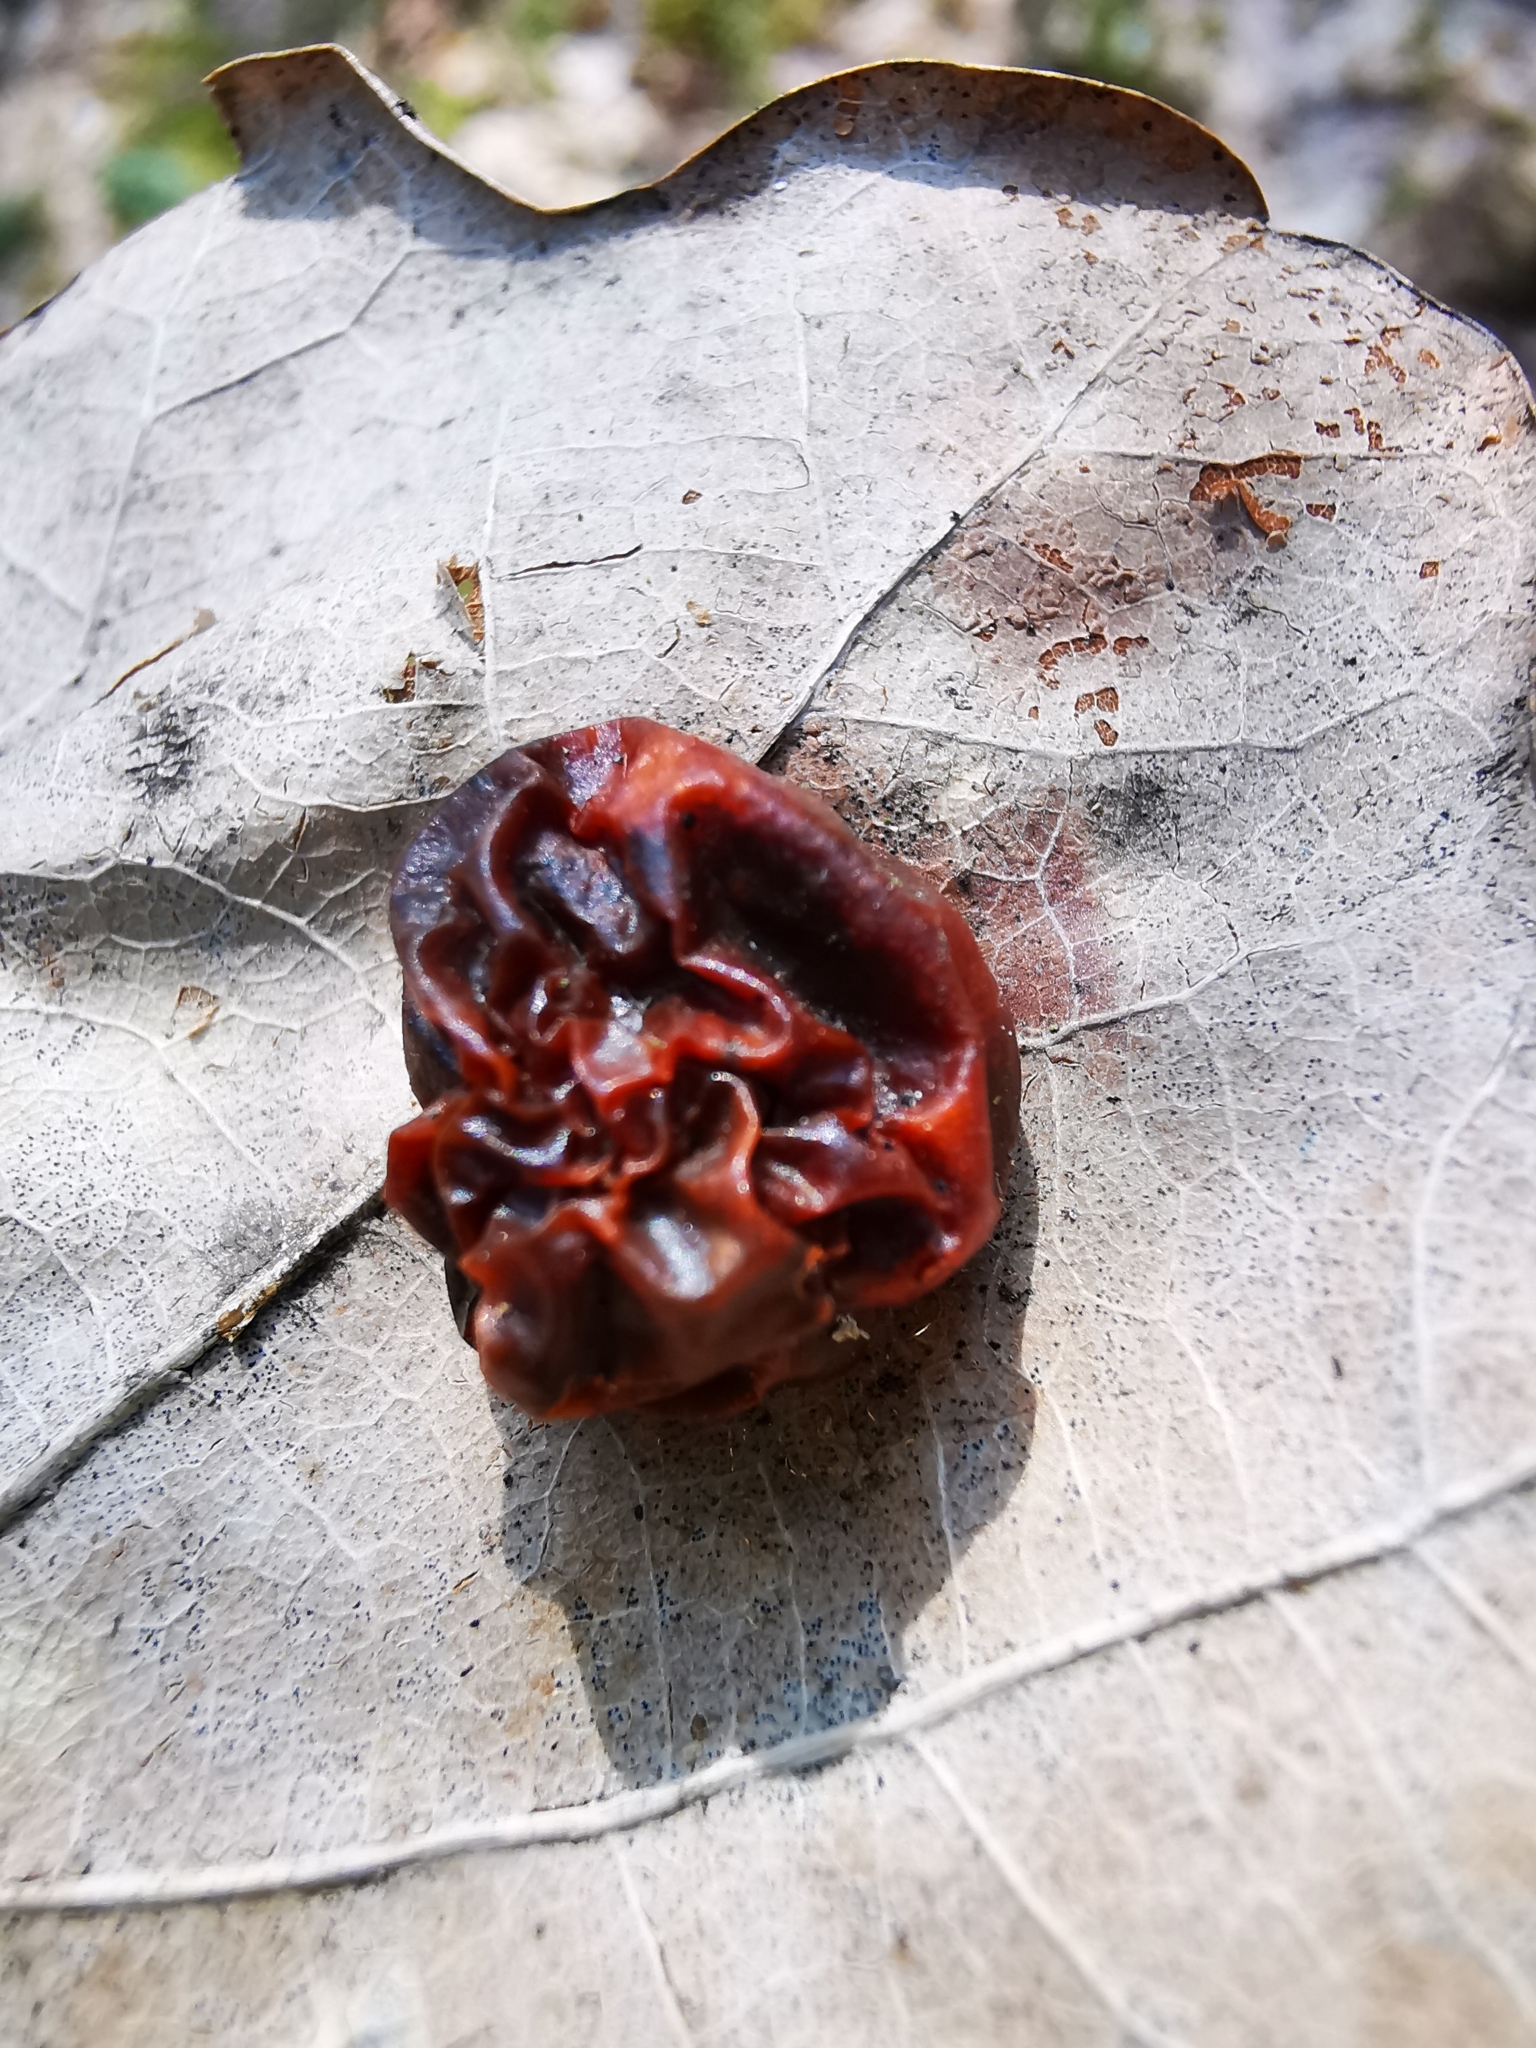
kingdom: Animalia
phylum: Arthropoda
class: Insecta
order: Hymenoptera
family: Cynipidae
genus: Cynips
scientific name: Cynips quercusfolii
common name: Cherry gall
